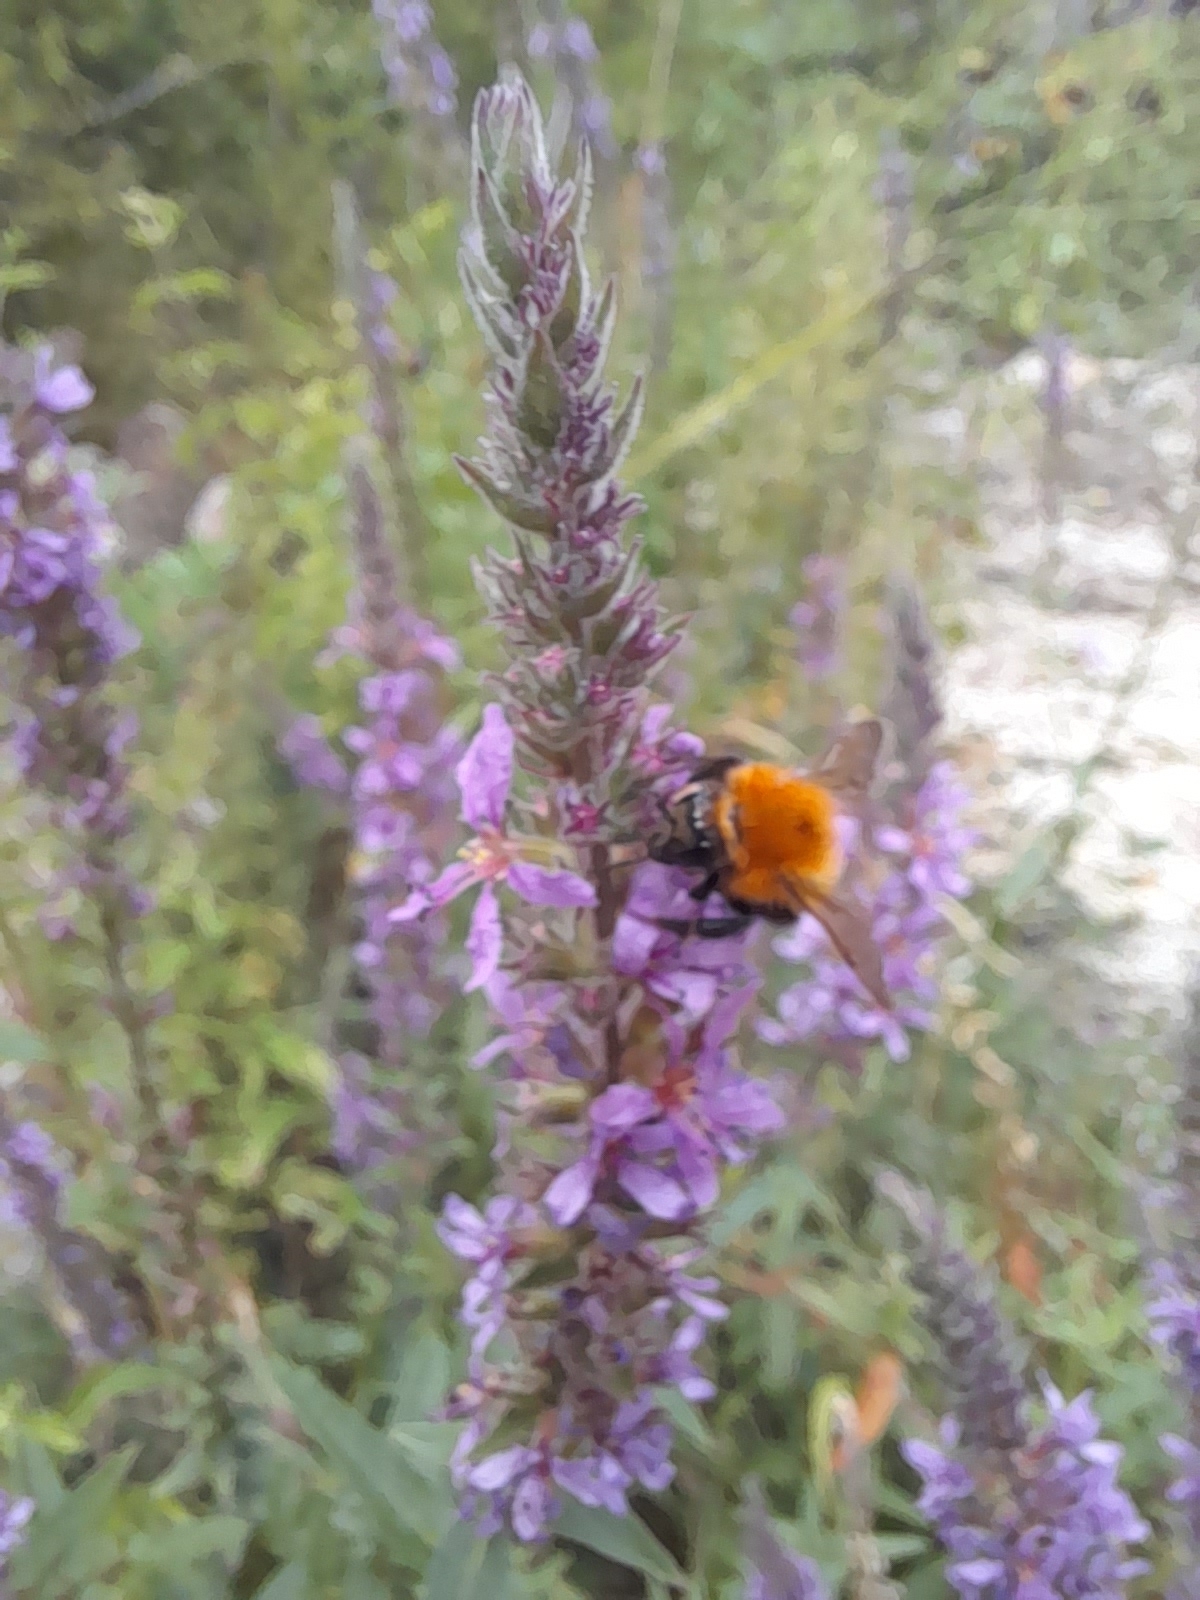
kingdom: Animalia
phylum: Arthropoda
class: Insecta
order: Hymenoptera
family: Apidae
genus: Bombus
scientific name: Bombus pascuorum
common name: Common carder bee
